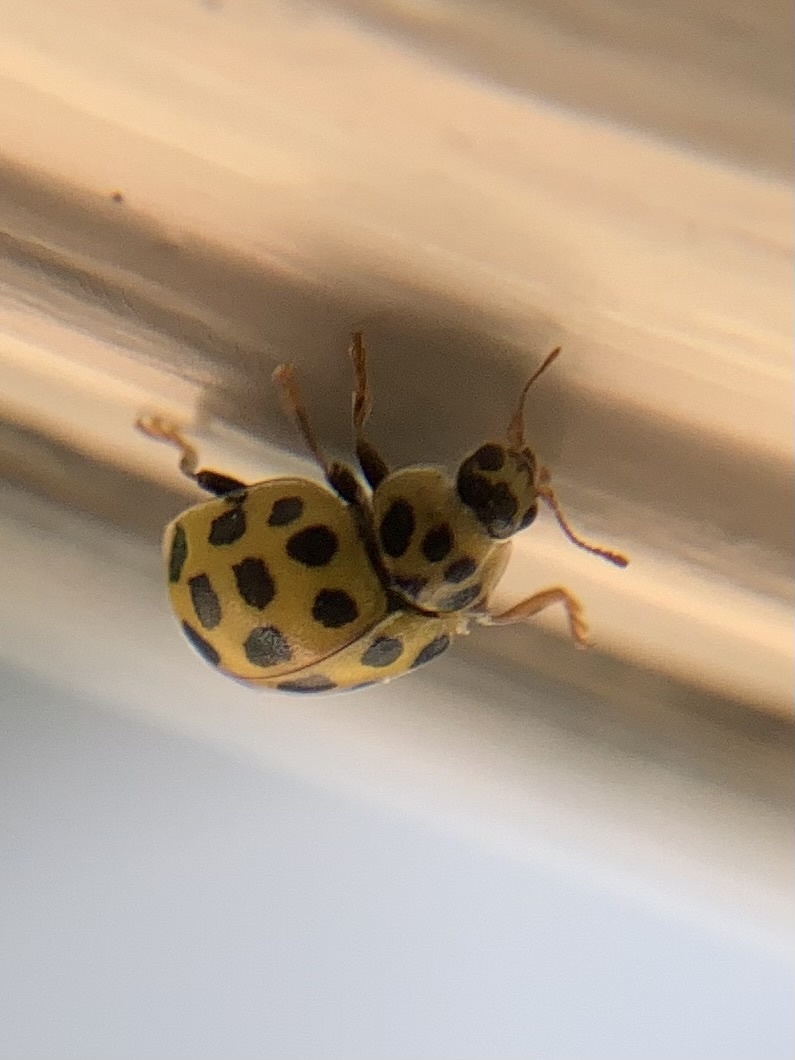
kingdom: Animalia
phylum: Arthropoda
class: Insecta
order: Coleoptera
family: Coccinellidae
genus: Psyllobora
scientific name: Psyllobora vigintiduopunctata
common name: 22-spot ladybird
